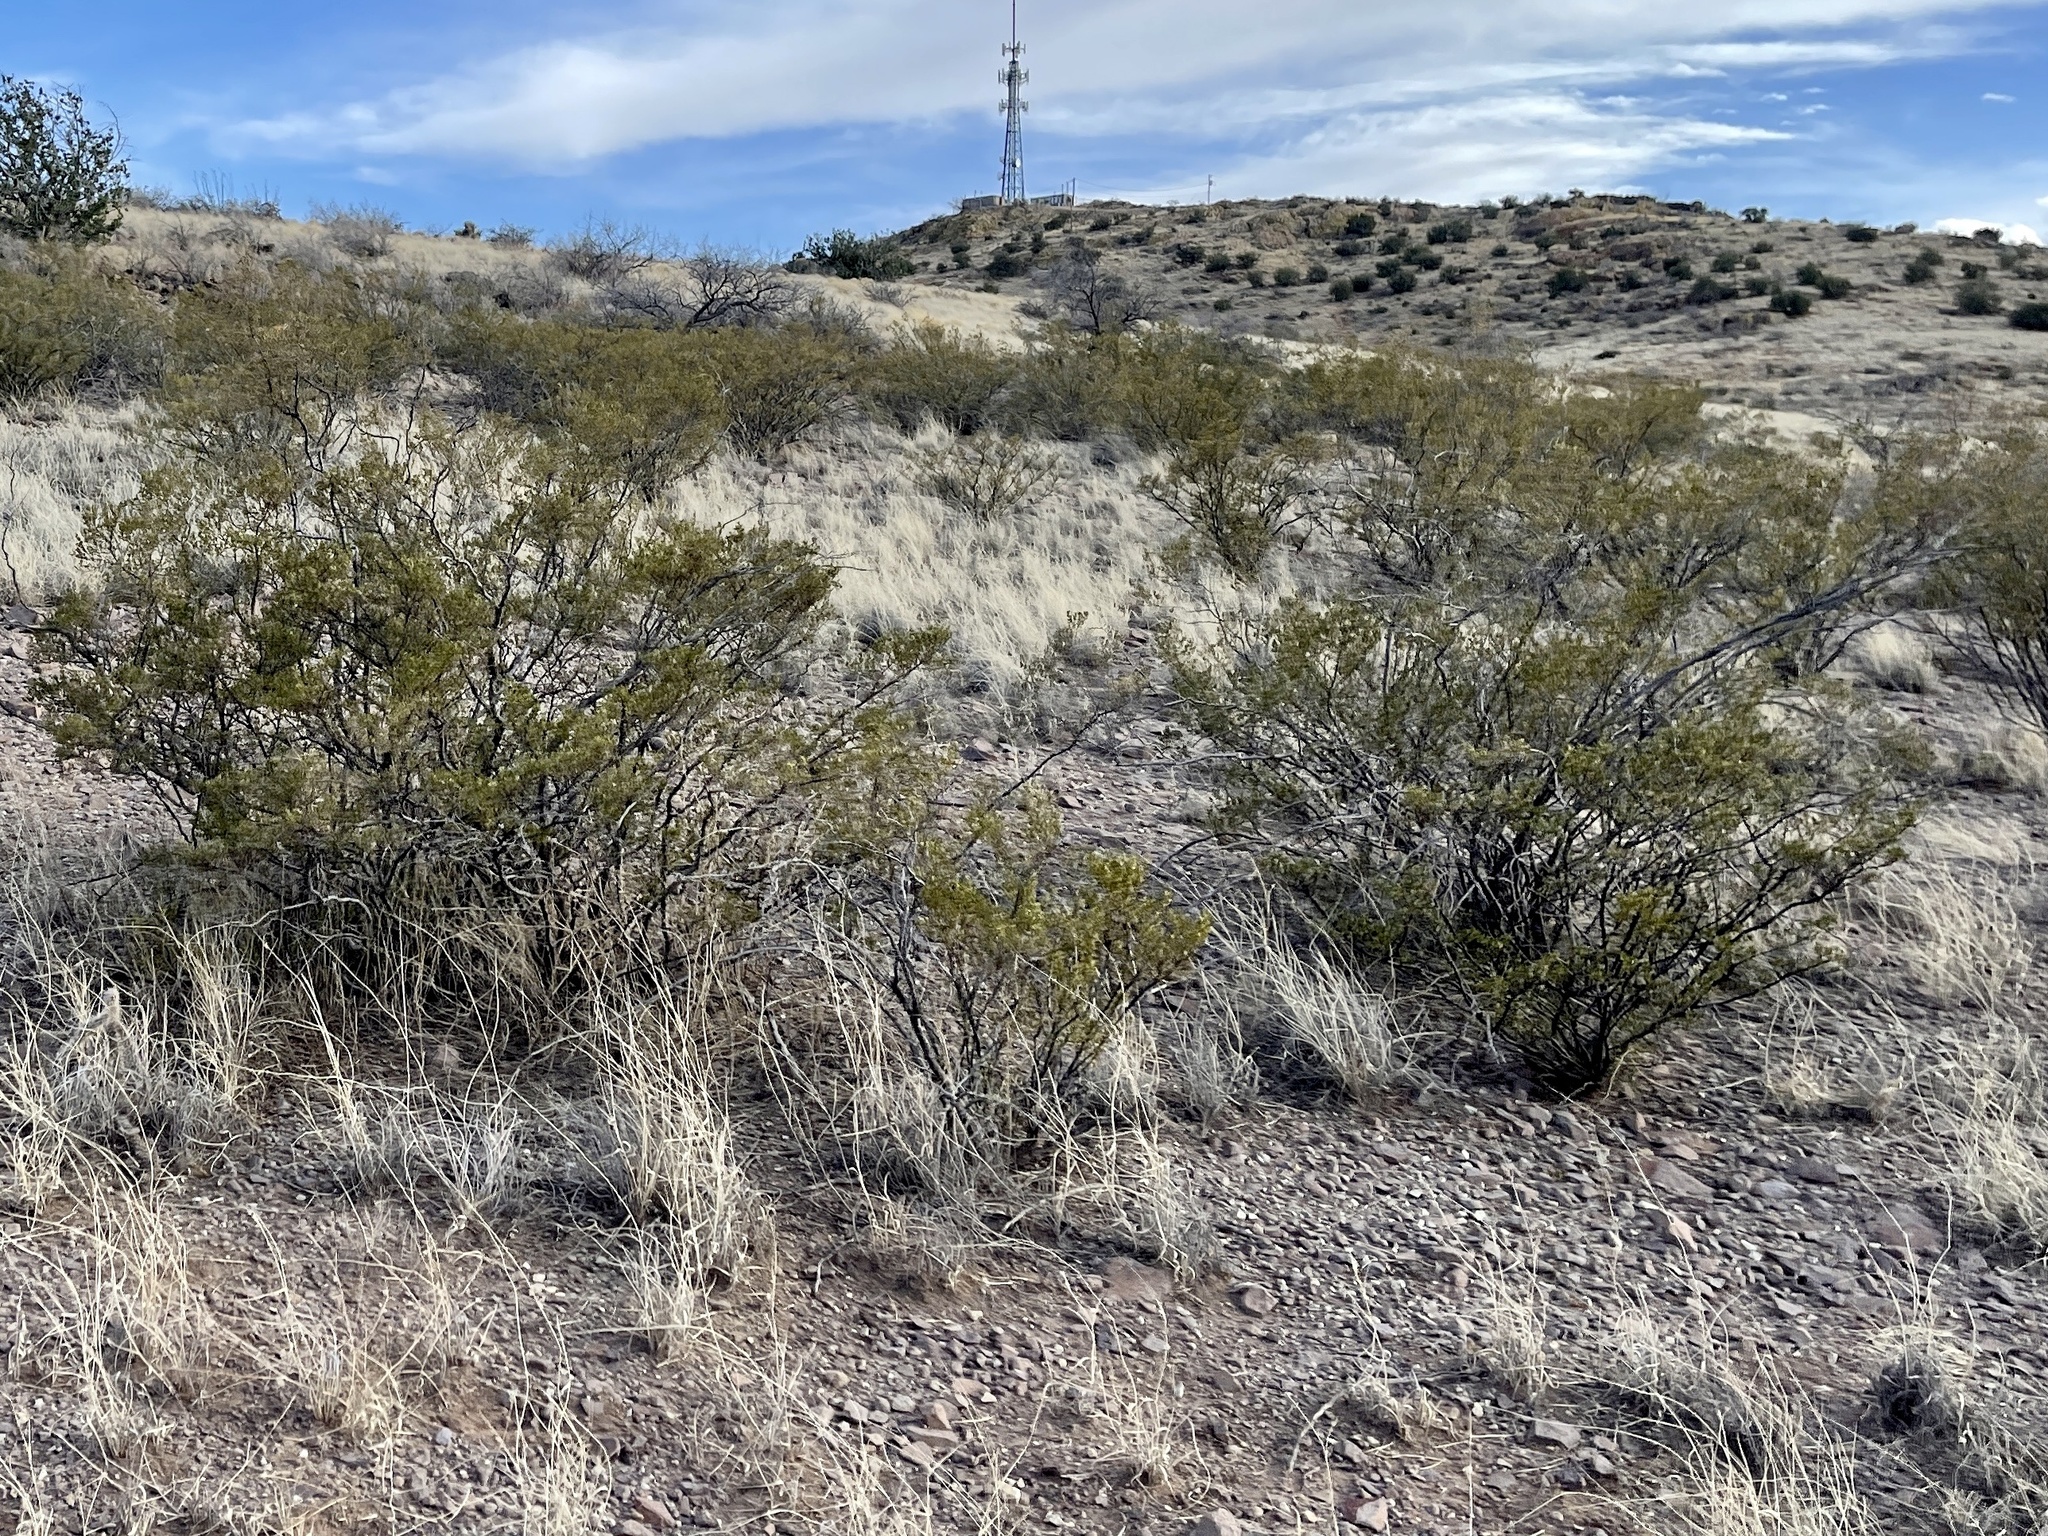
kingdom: Plantae
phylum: Tracheophyta
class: Magnoliopsida
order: Zygophyllales
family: Zygophyllaceae
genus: Larrea
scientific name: Larrea tridentata
